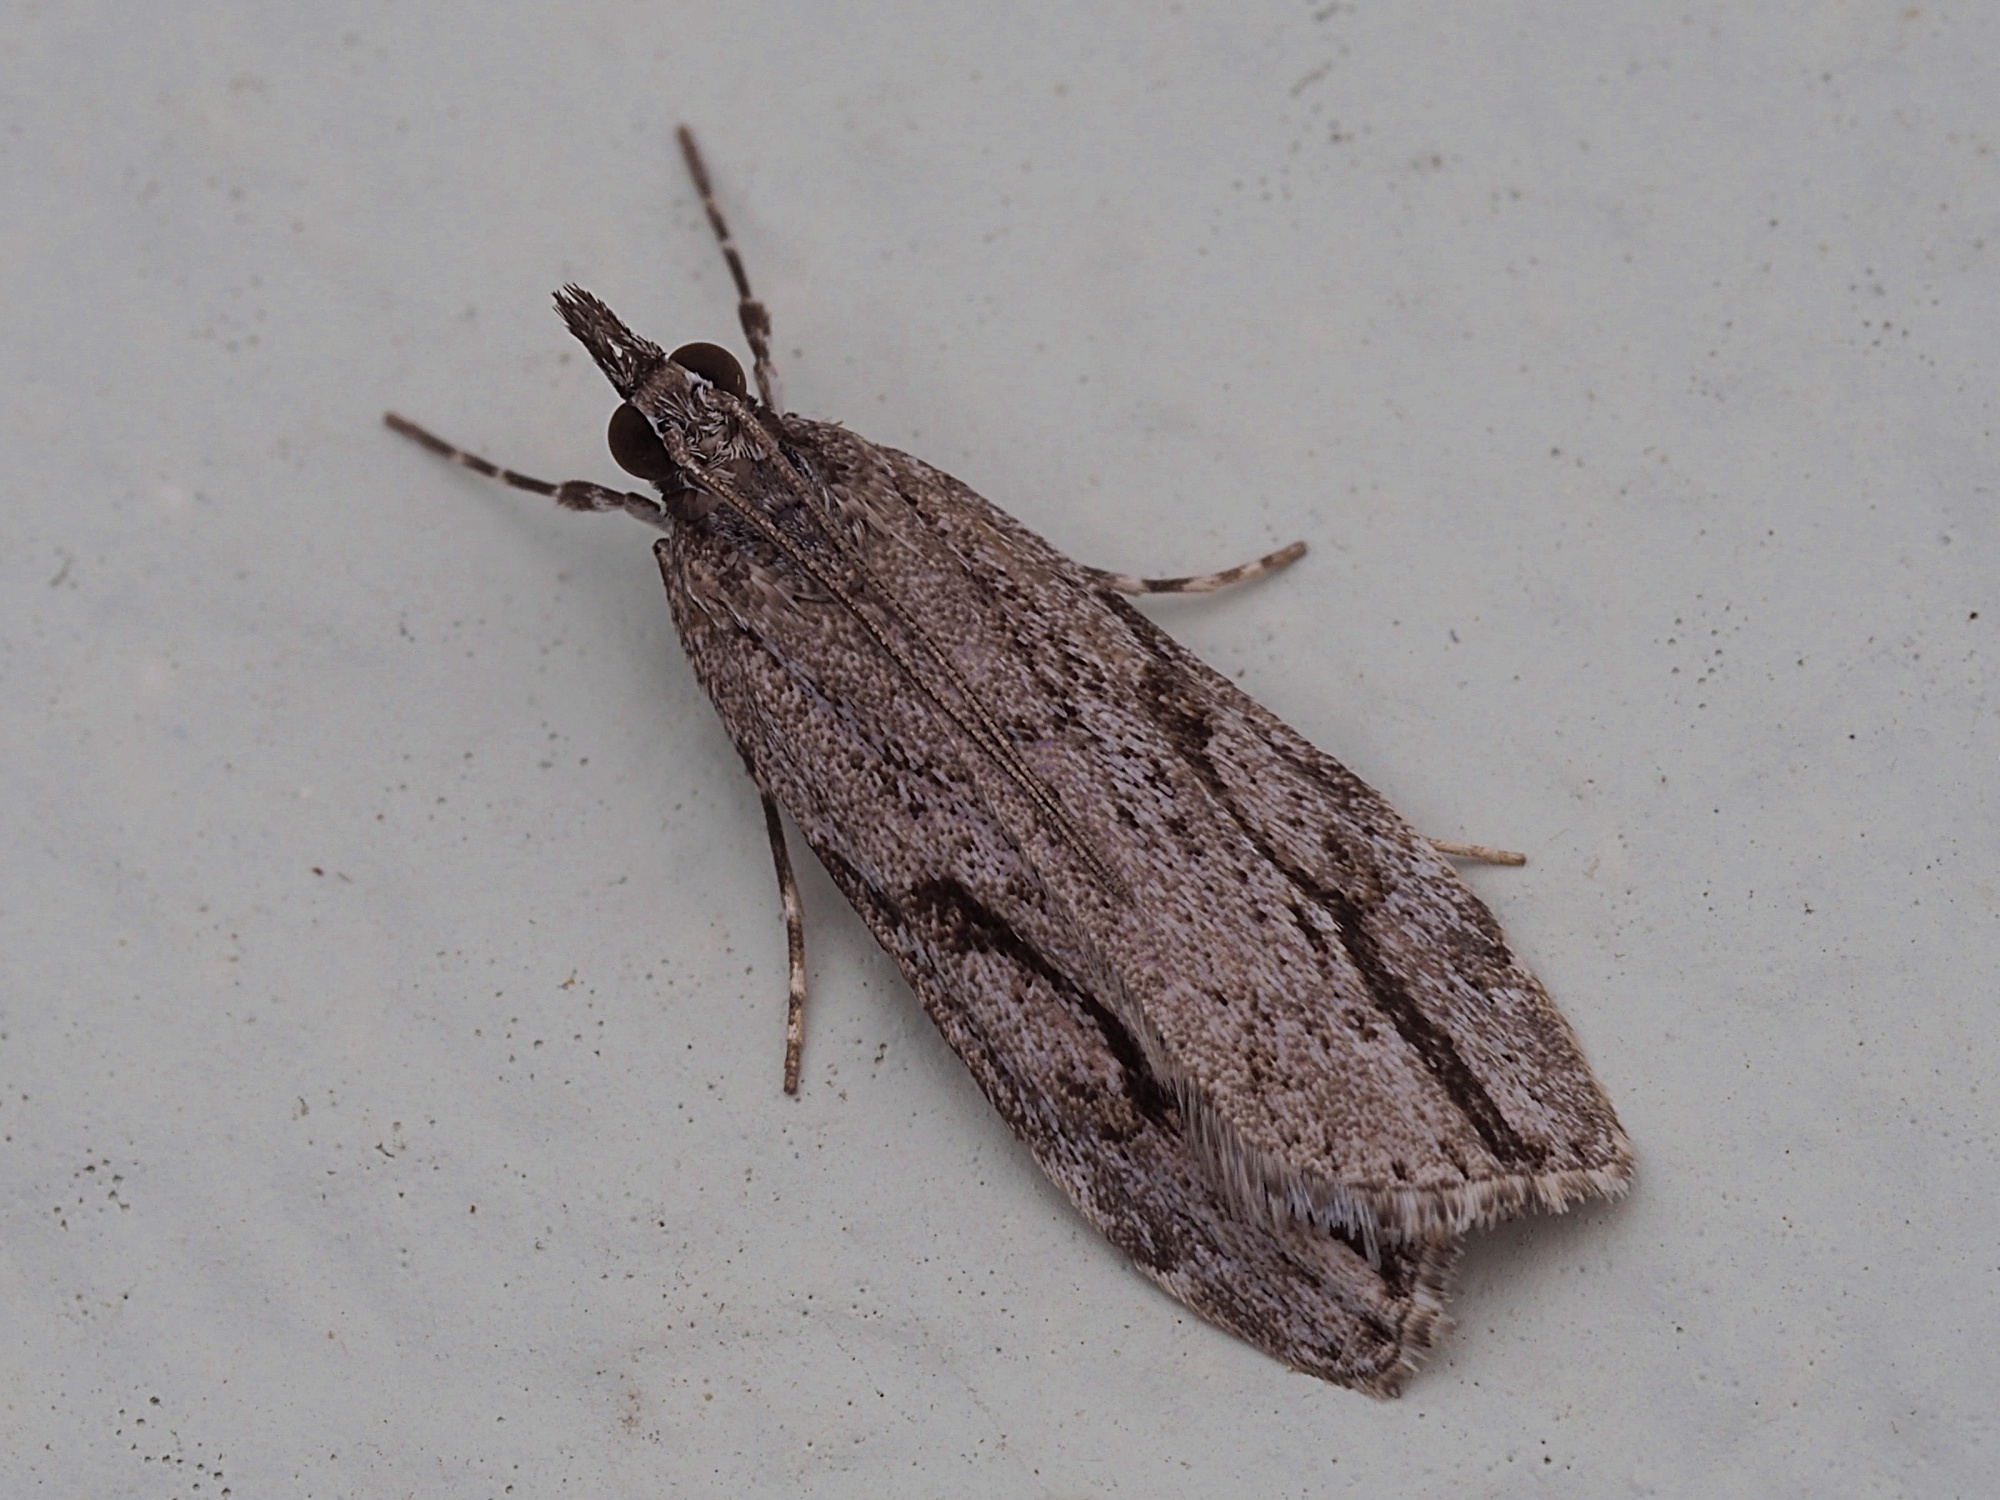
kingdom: Animalia
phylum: Arthropoda
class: Insecta
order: Lepidoptera
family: Crambidae
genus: Eudonia
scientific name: Eudonia bisinualis
